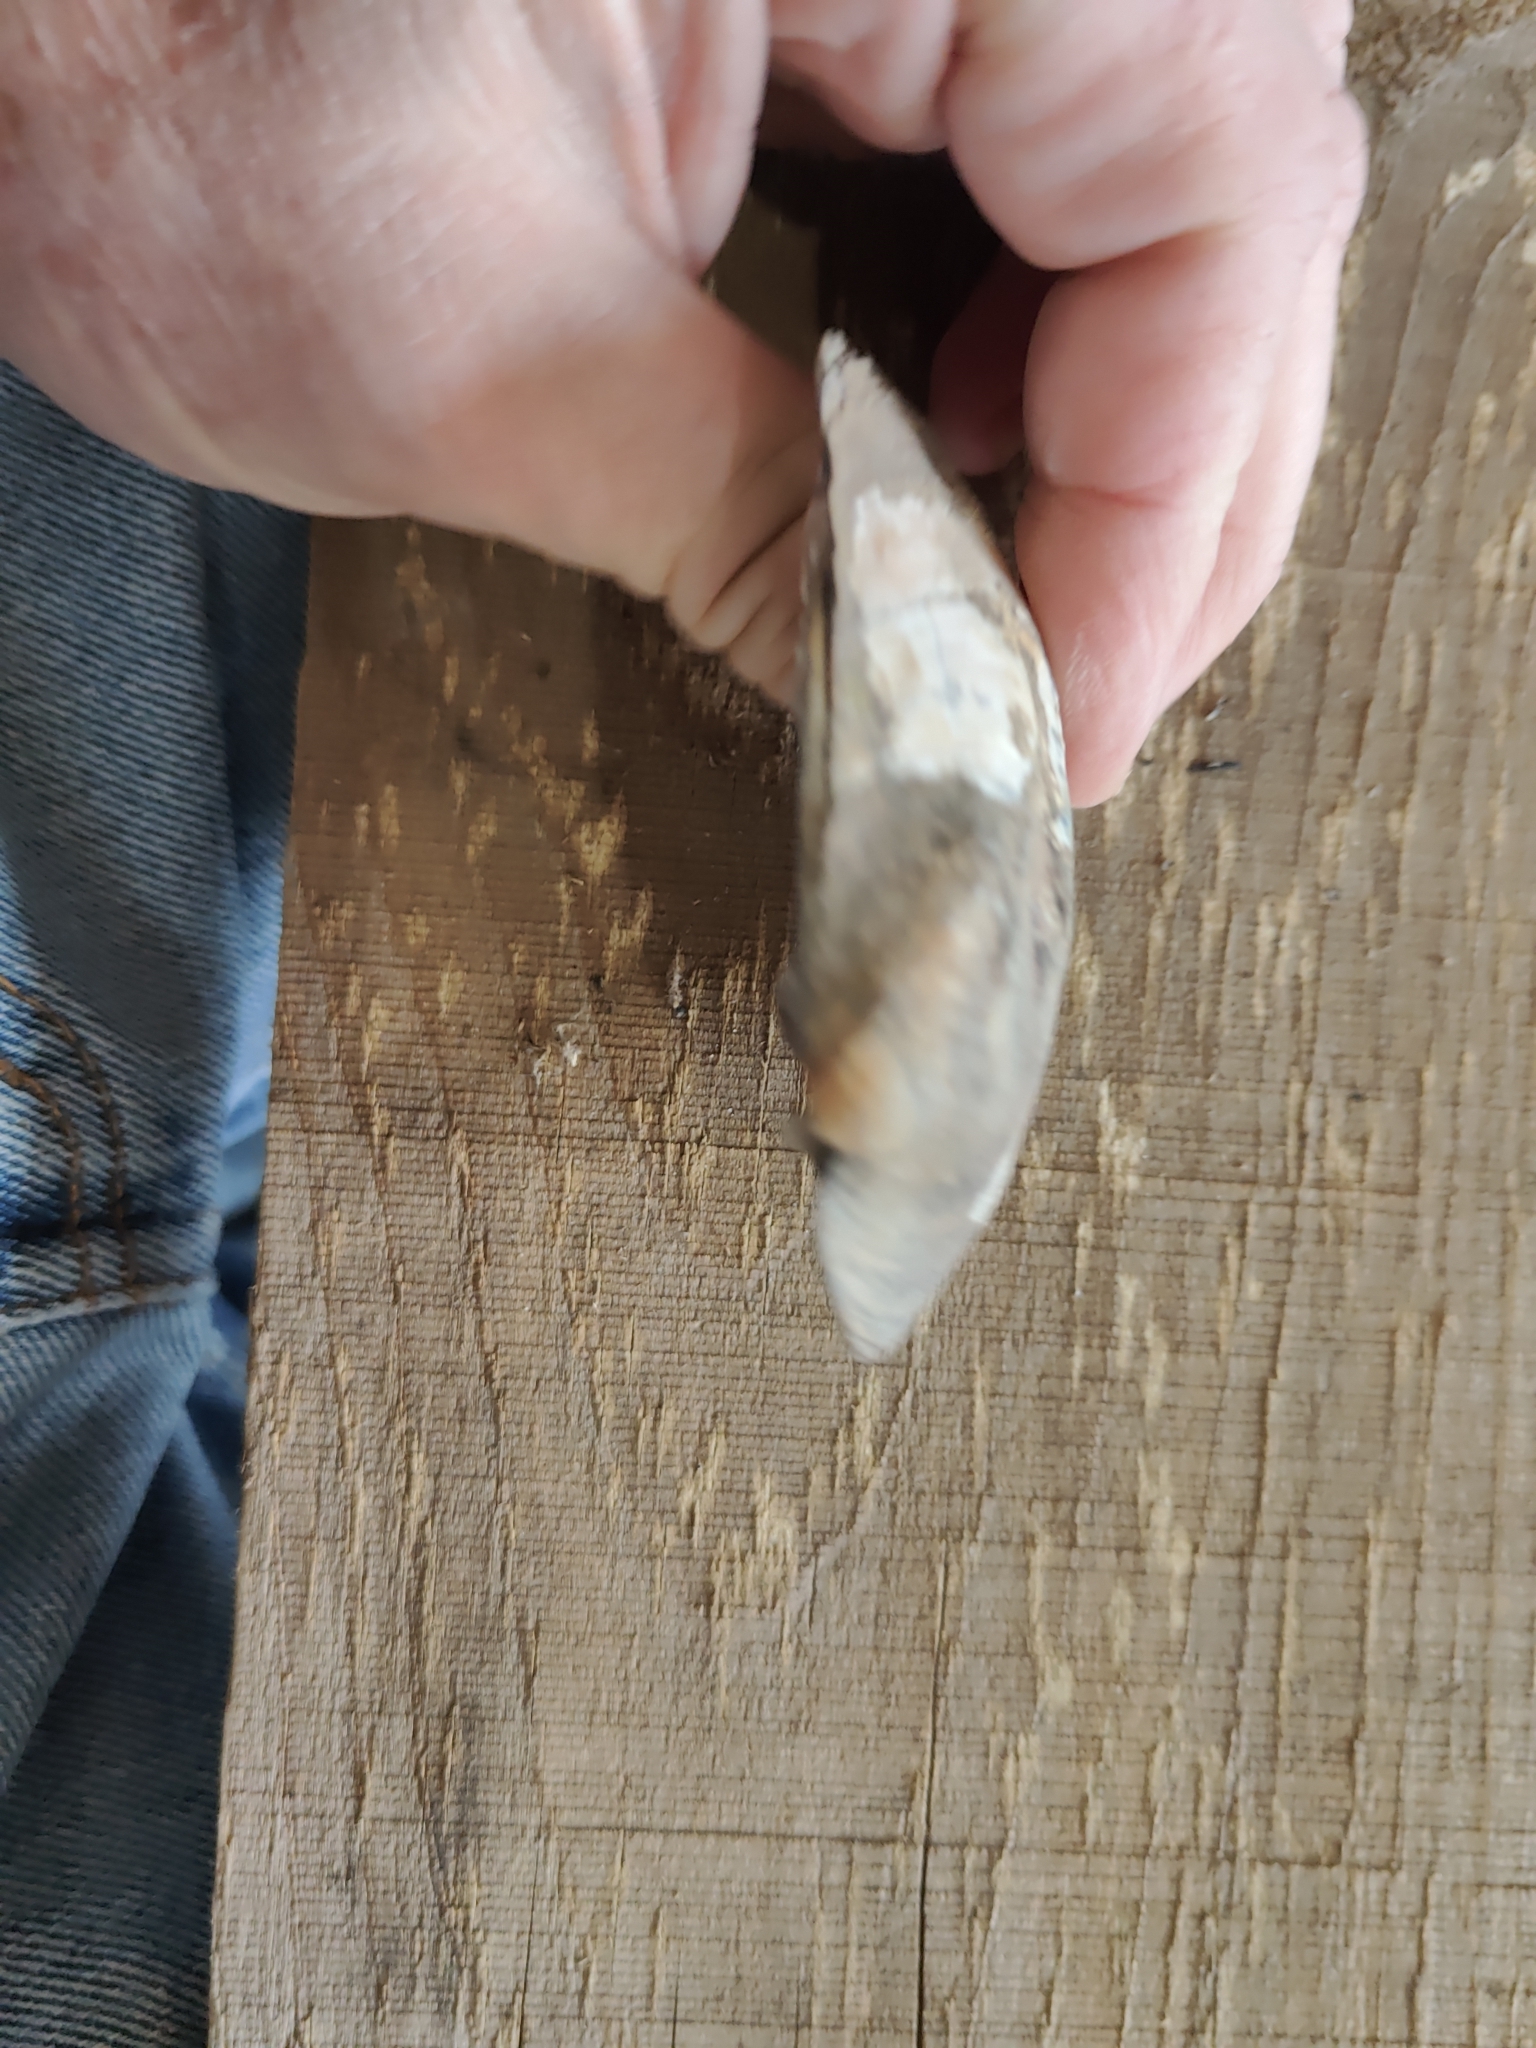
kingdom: Animalia
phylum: Mollusca
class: Bivalvia
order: Unionida
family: Unionidae
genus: Amblema
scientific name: Amblema plicata
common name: Threeridge
